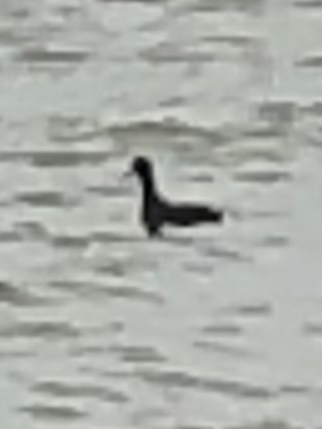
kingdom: Animalia
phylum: Chordata
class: Aves
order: Gruiformes
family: Rallidae
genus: Fulica
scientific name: Fulica americana
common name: American coot
